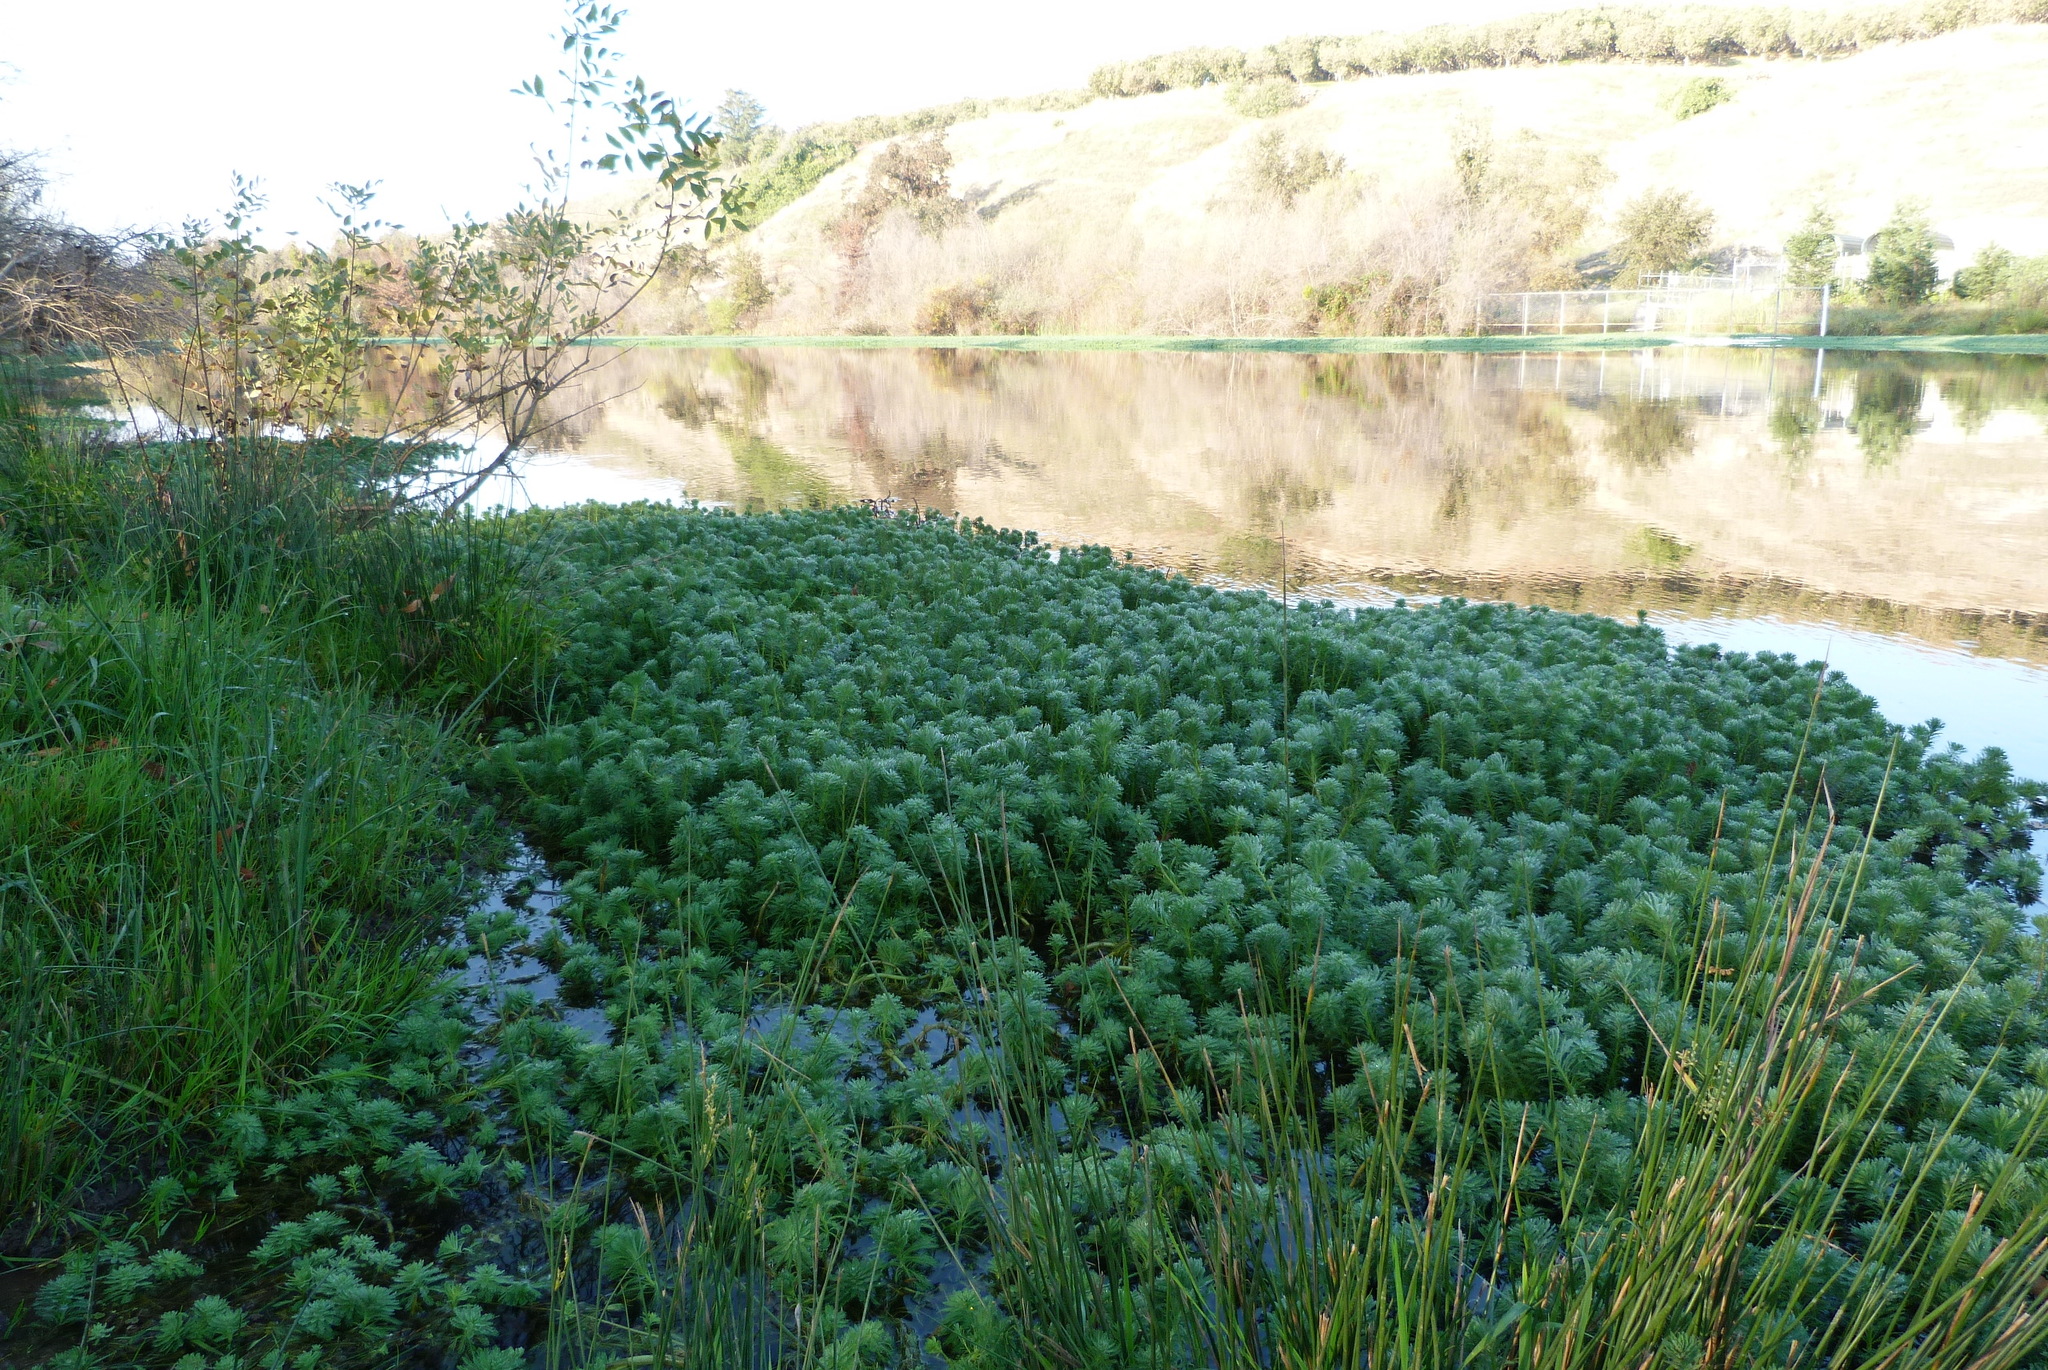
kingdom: Plantae
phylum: Tracheophyta
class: Magnoliopsida
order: Saxifragales
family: Haloragaceae
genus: Myriophyllum
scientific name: Myriophyllum aquaticum
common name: Parrot's feather
